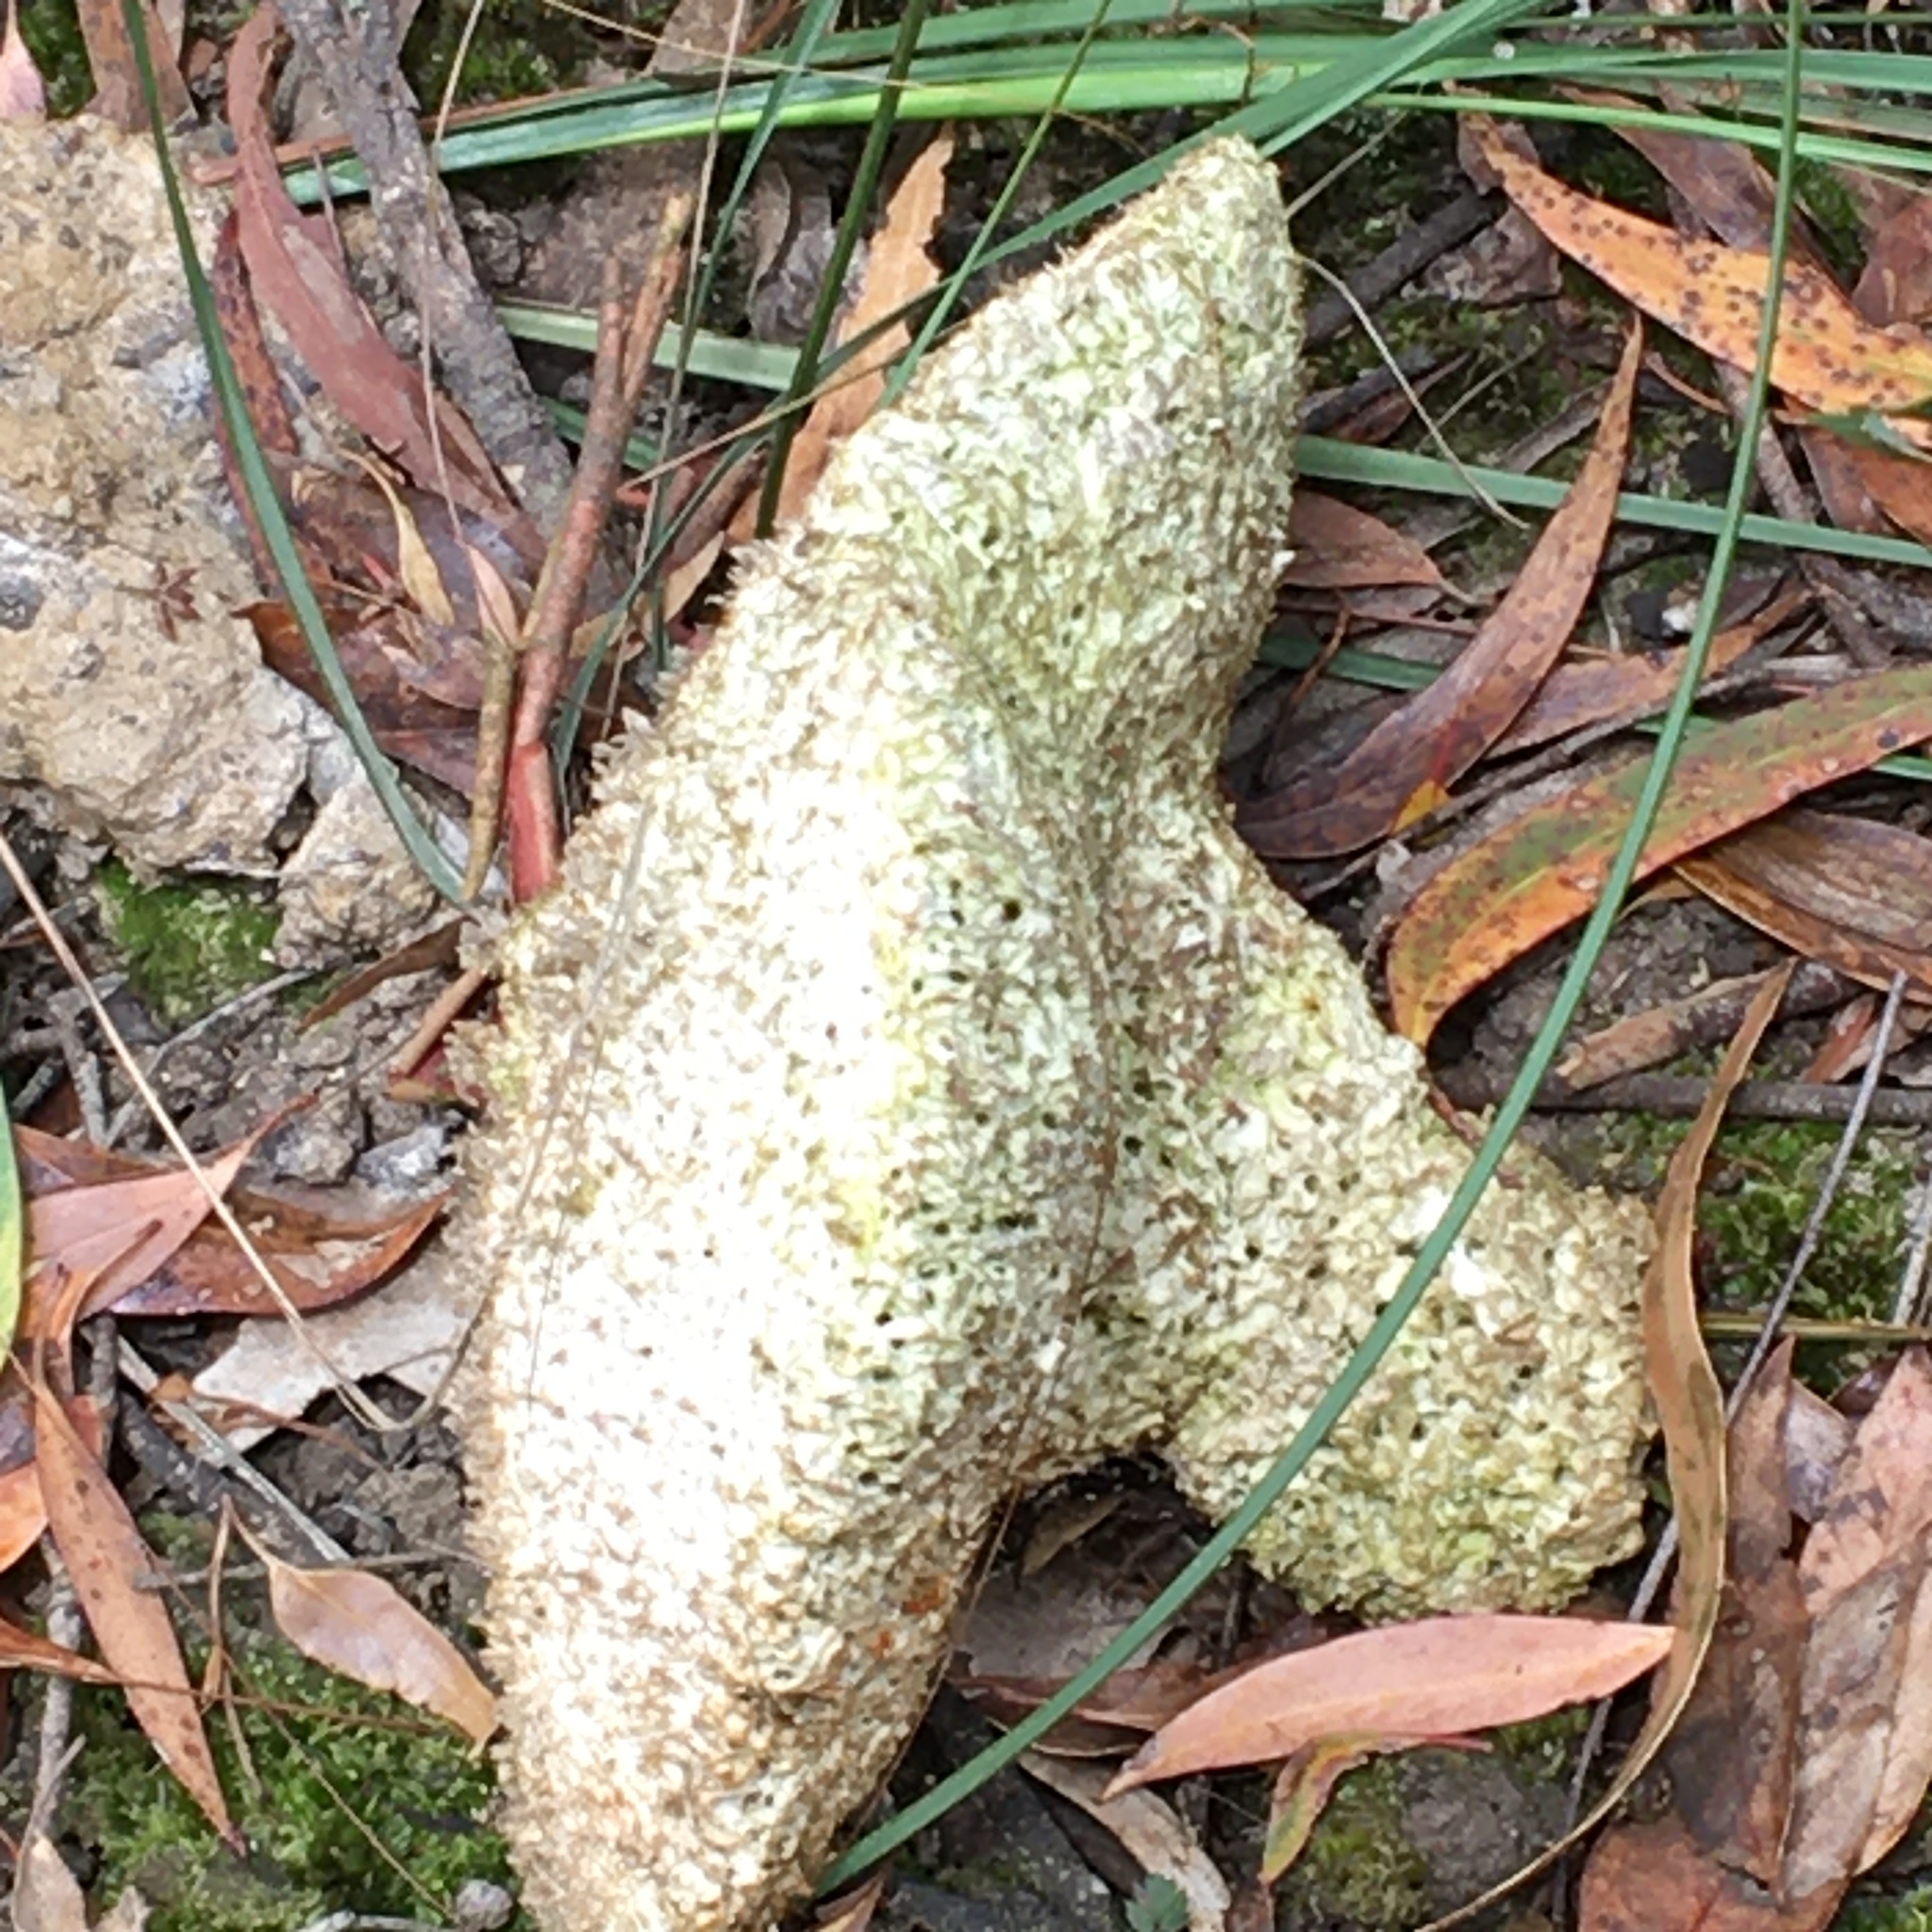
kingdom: Fungi
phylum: Basidiomycota
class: Agaricomycetes
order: Polyporales
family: Laetiporaceae
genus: Laetiporus
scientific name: Laetiporus portentosus
